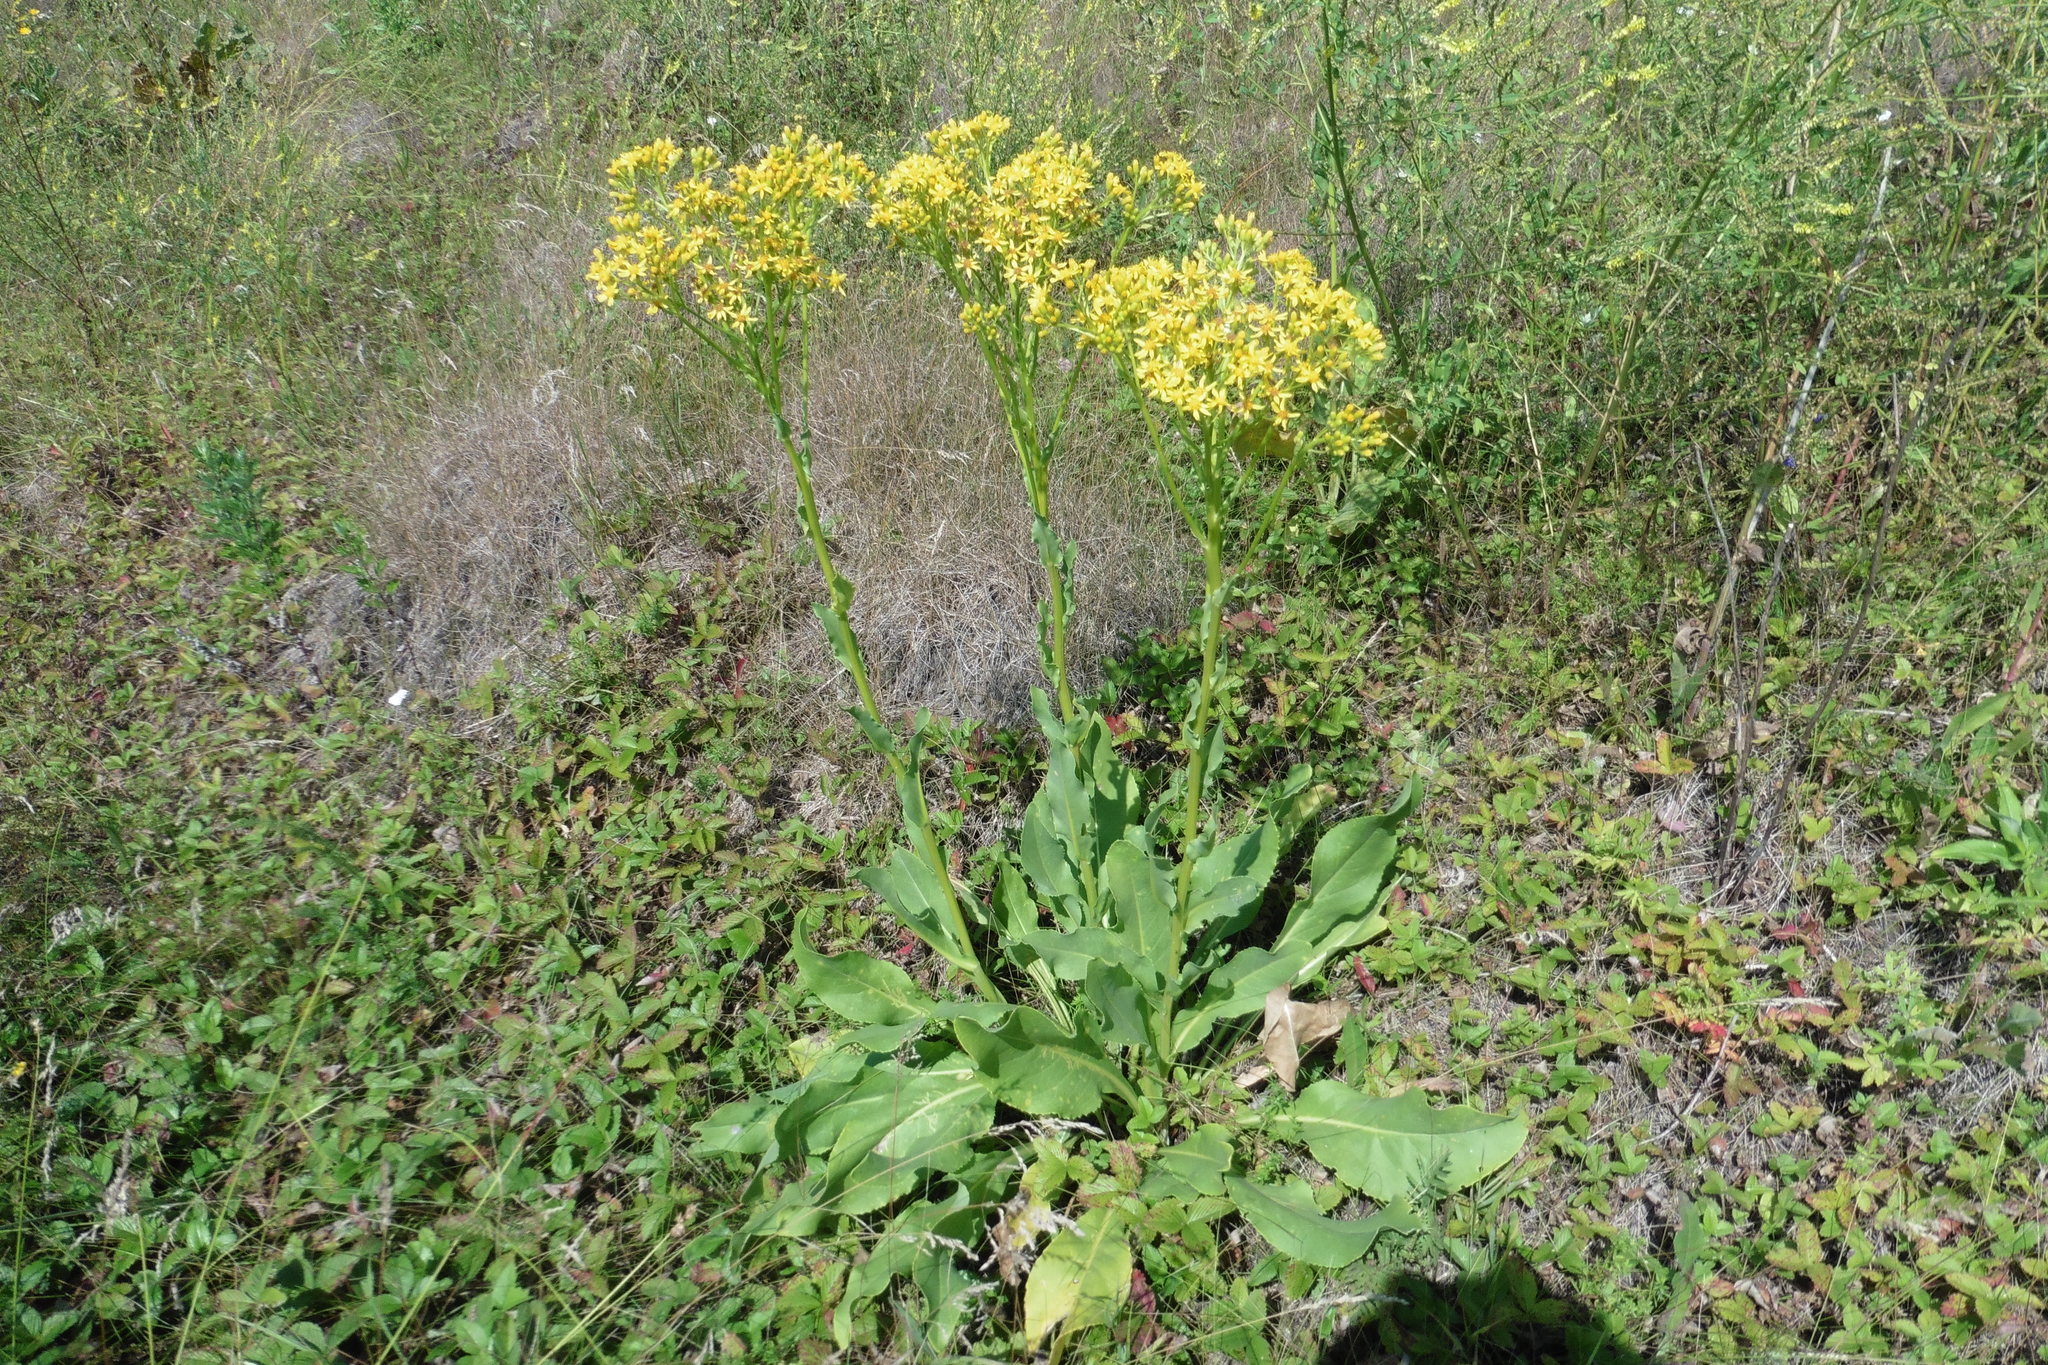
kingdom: Plantae
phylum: Tracheophyta
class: Magnoliopsida
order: Asterales
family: Asteraceae
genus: Senecio
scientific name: Senecio doria
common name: Golden ragwort
